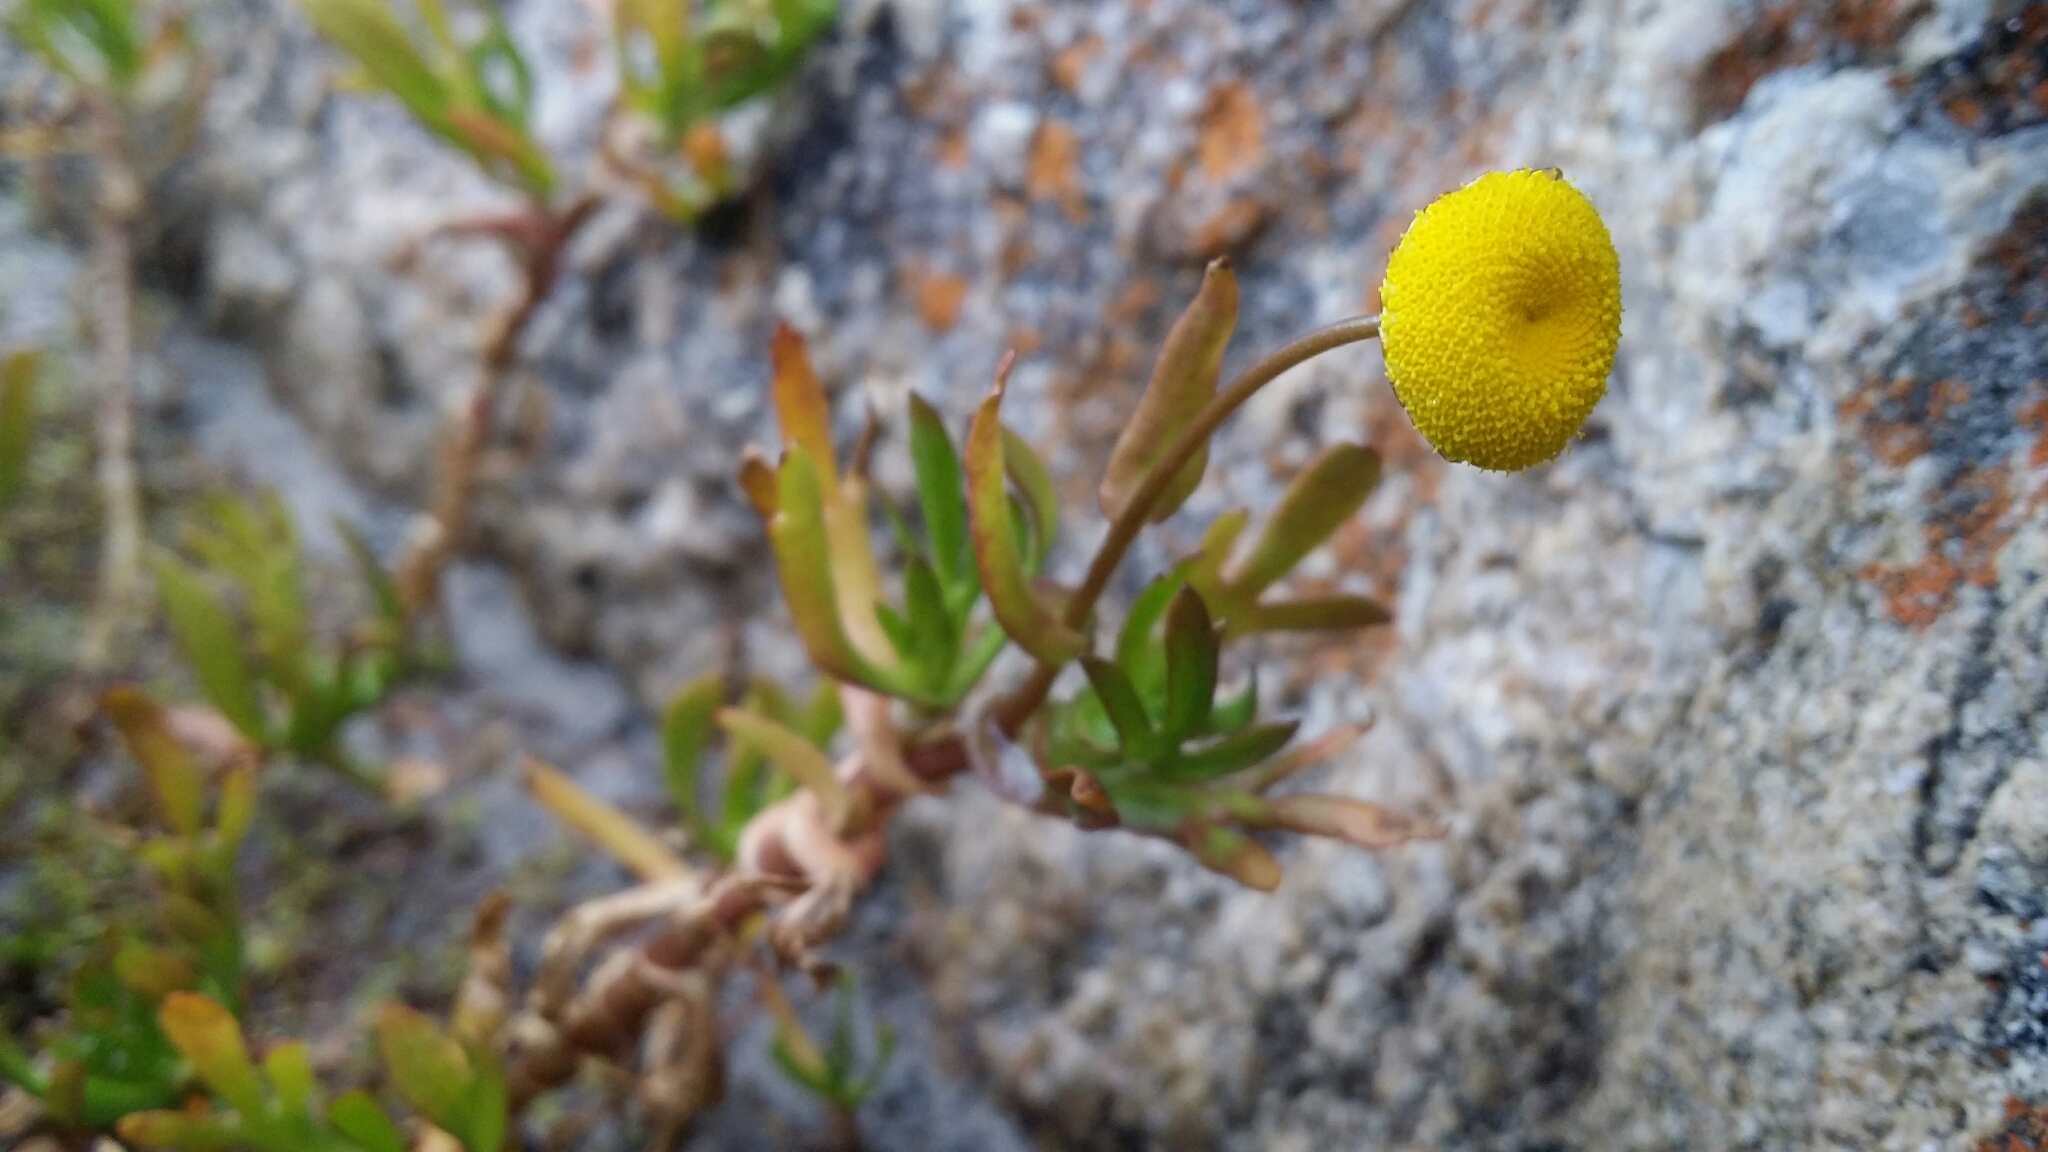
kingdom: Plantae
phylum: Tracheophyta
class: Magnoliopsida
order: Asterales
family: Asteraceae
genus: Cotula
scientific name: Cotula coronopifolia
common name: Buttonweed
